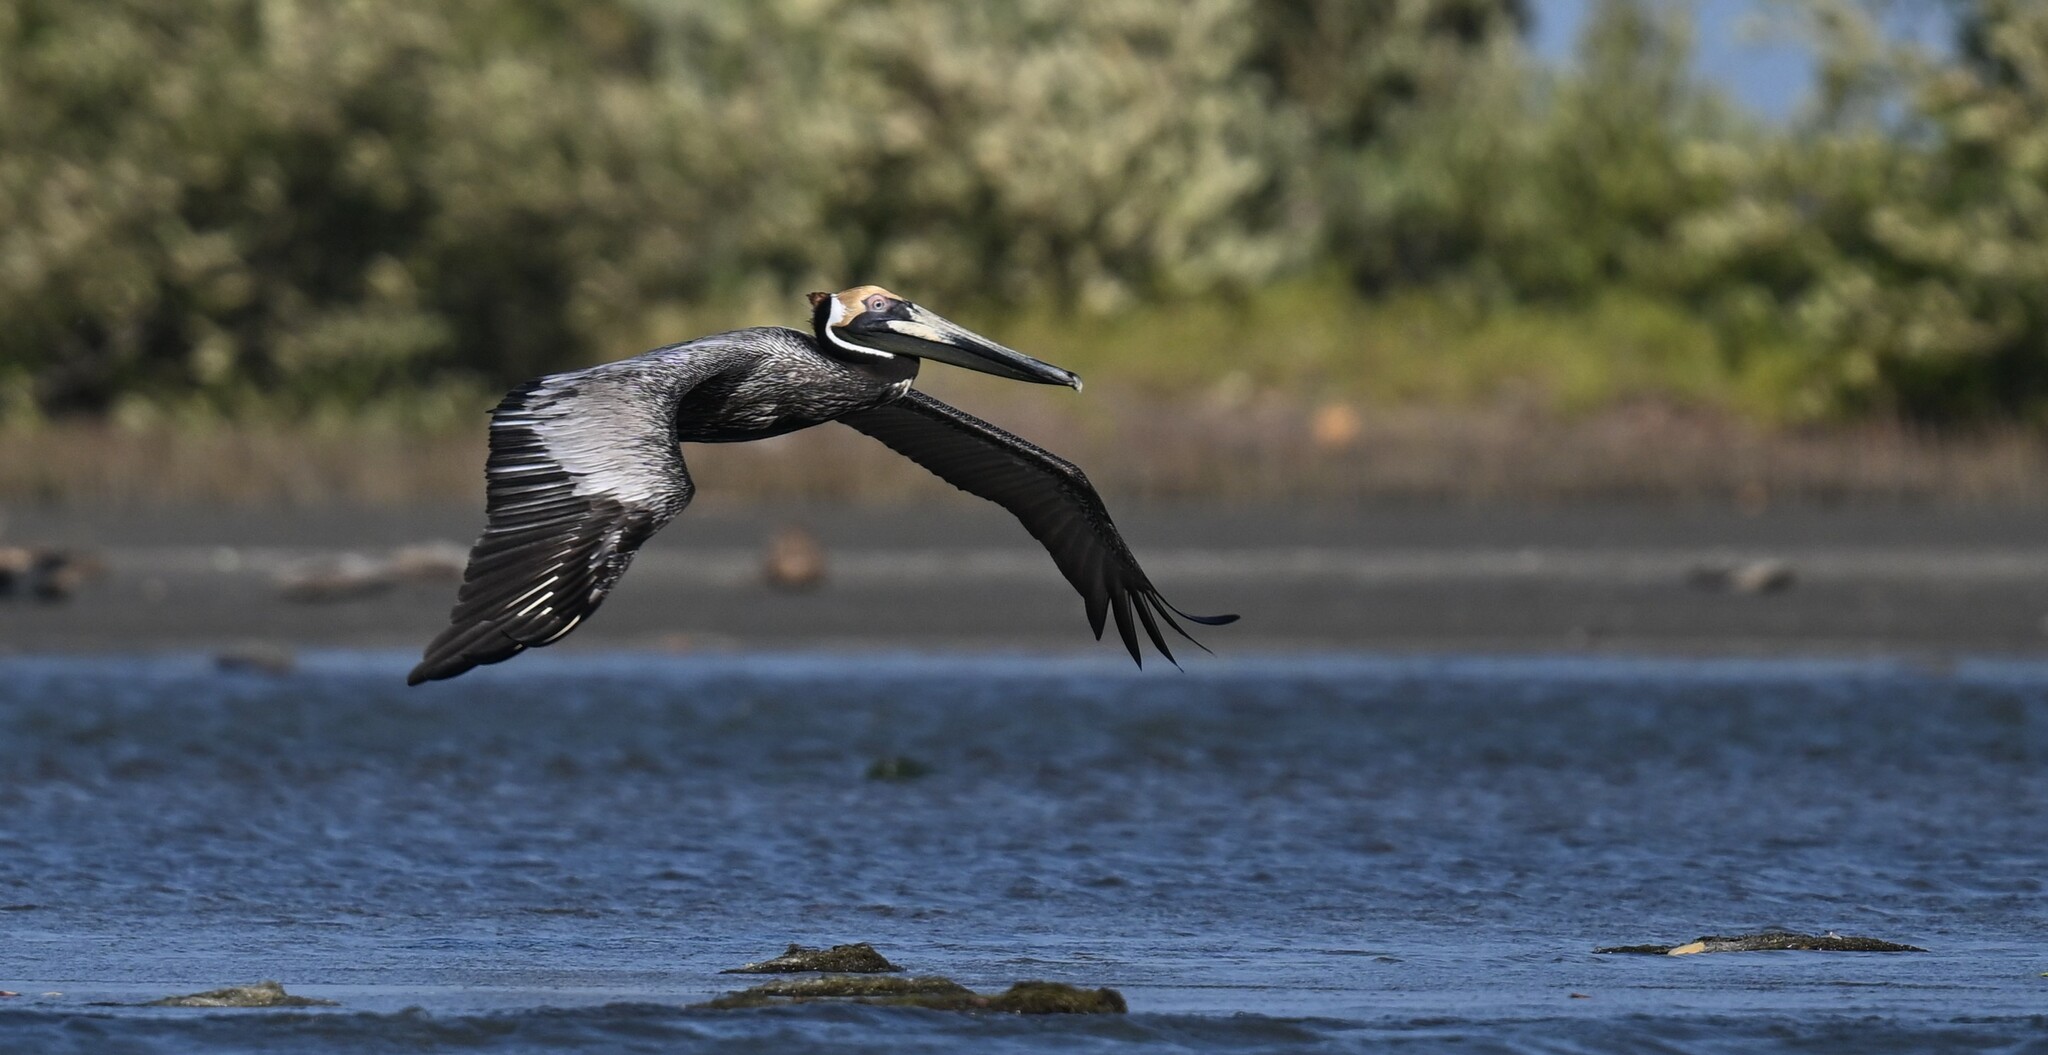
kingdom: Animalia
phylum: Chordata
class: Aves
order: Pelecaniformes
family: Pelecanidae
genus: Pelecanus
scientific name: Pelecanus occidentalis
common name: Brown pelican
